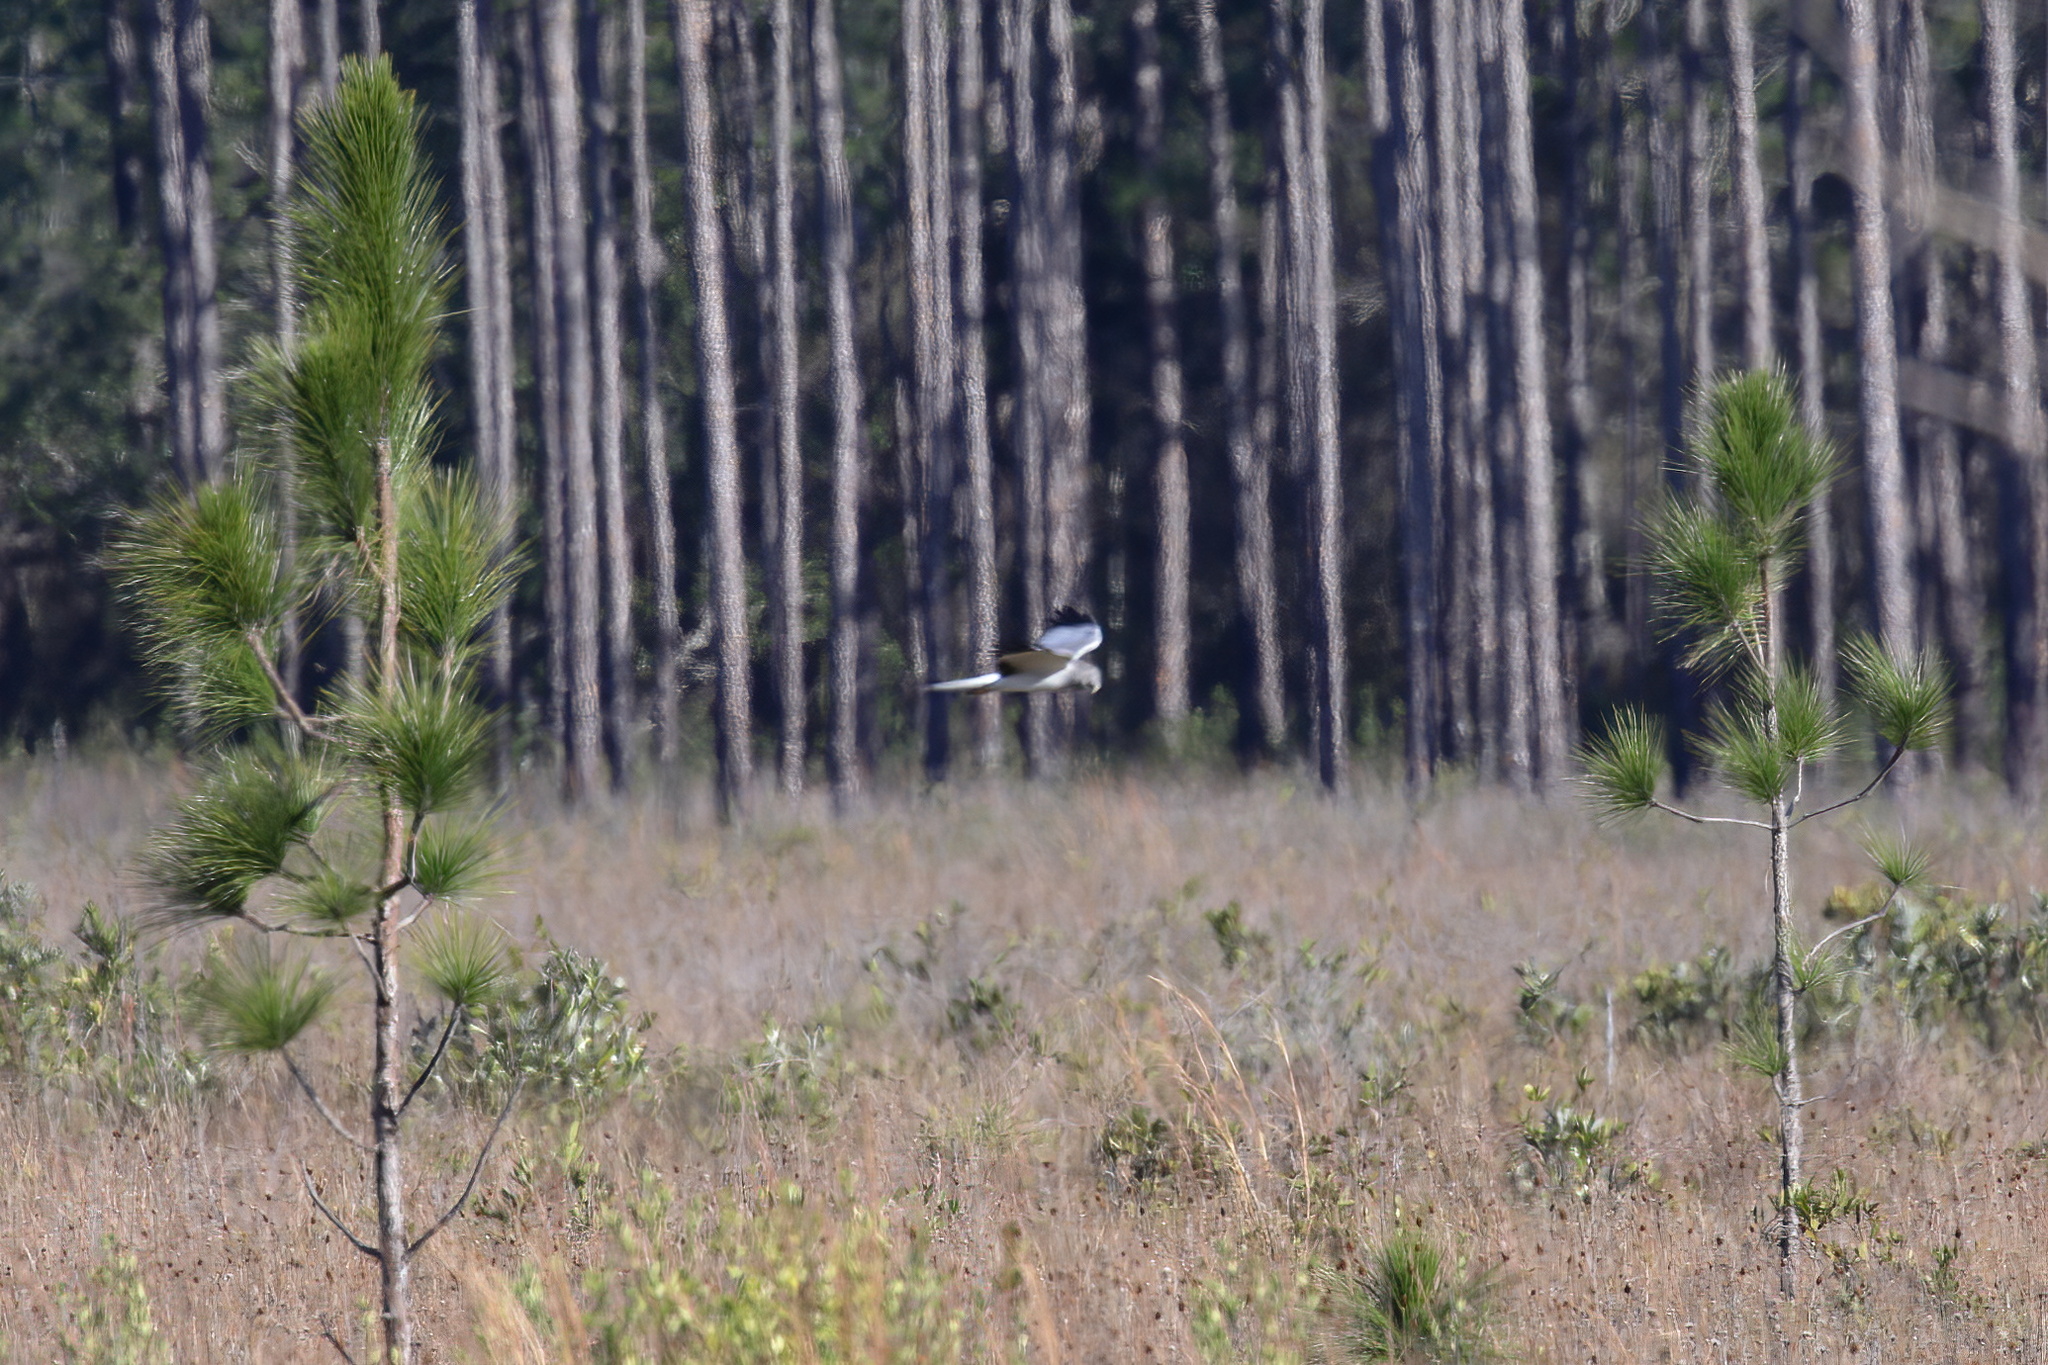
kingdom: Animalia
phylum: Chordata
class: Aves
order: Accipitriformes
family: Accipitridae
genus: Circus
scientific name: Circus cyaneus
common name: Hen harrier
